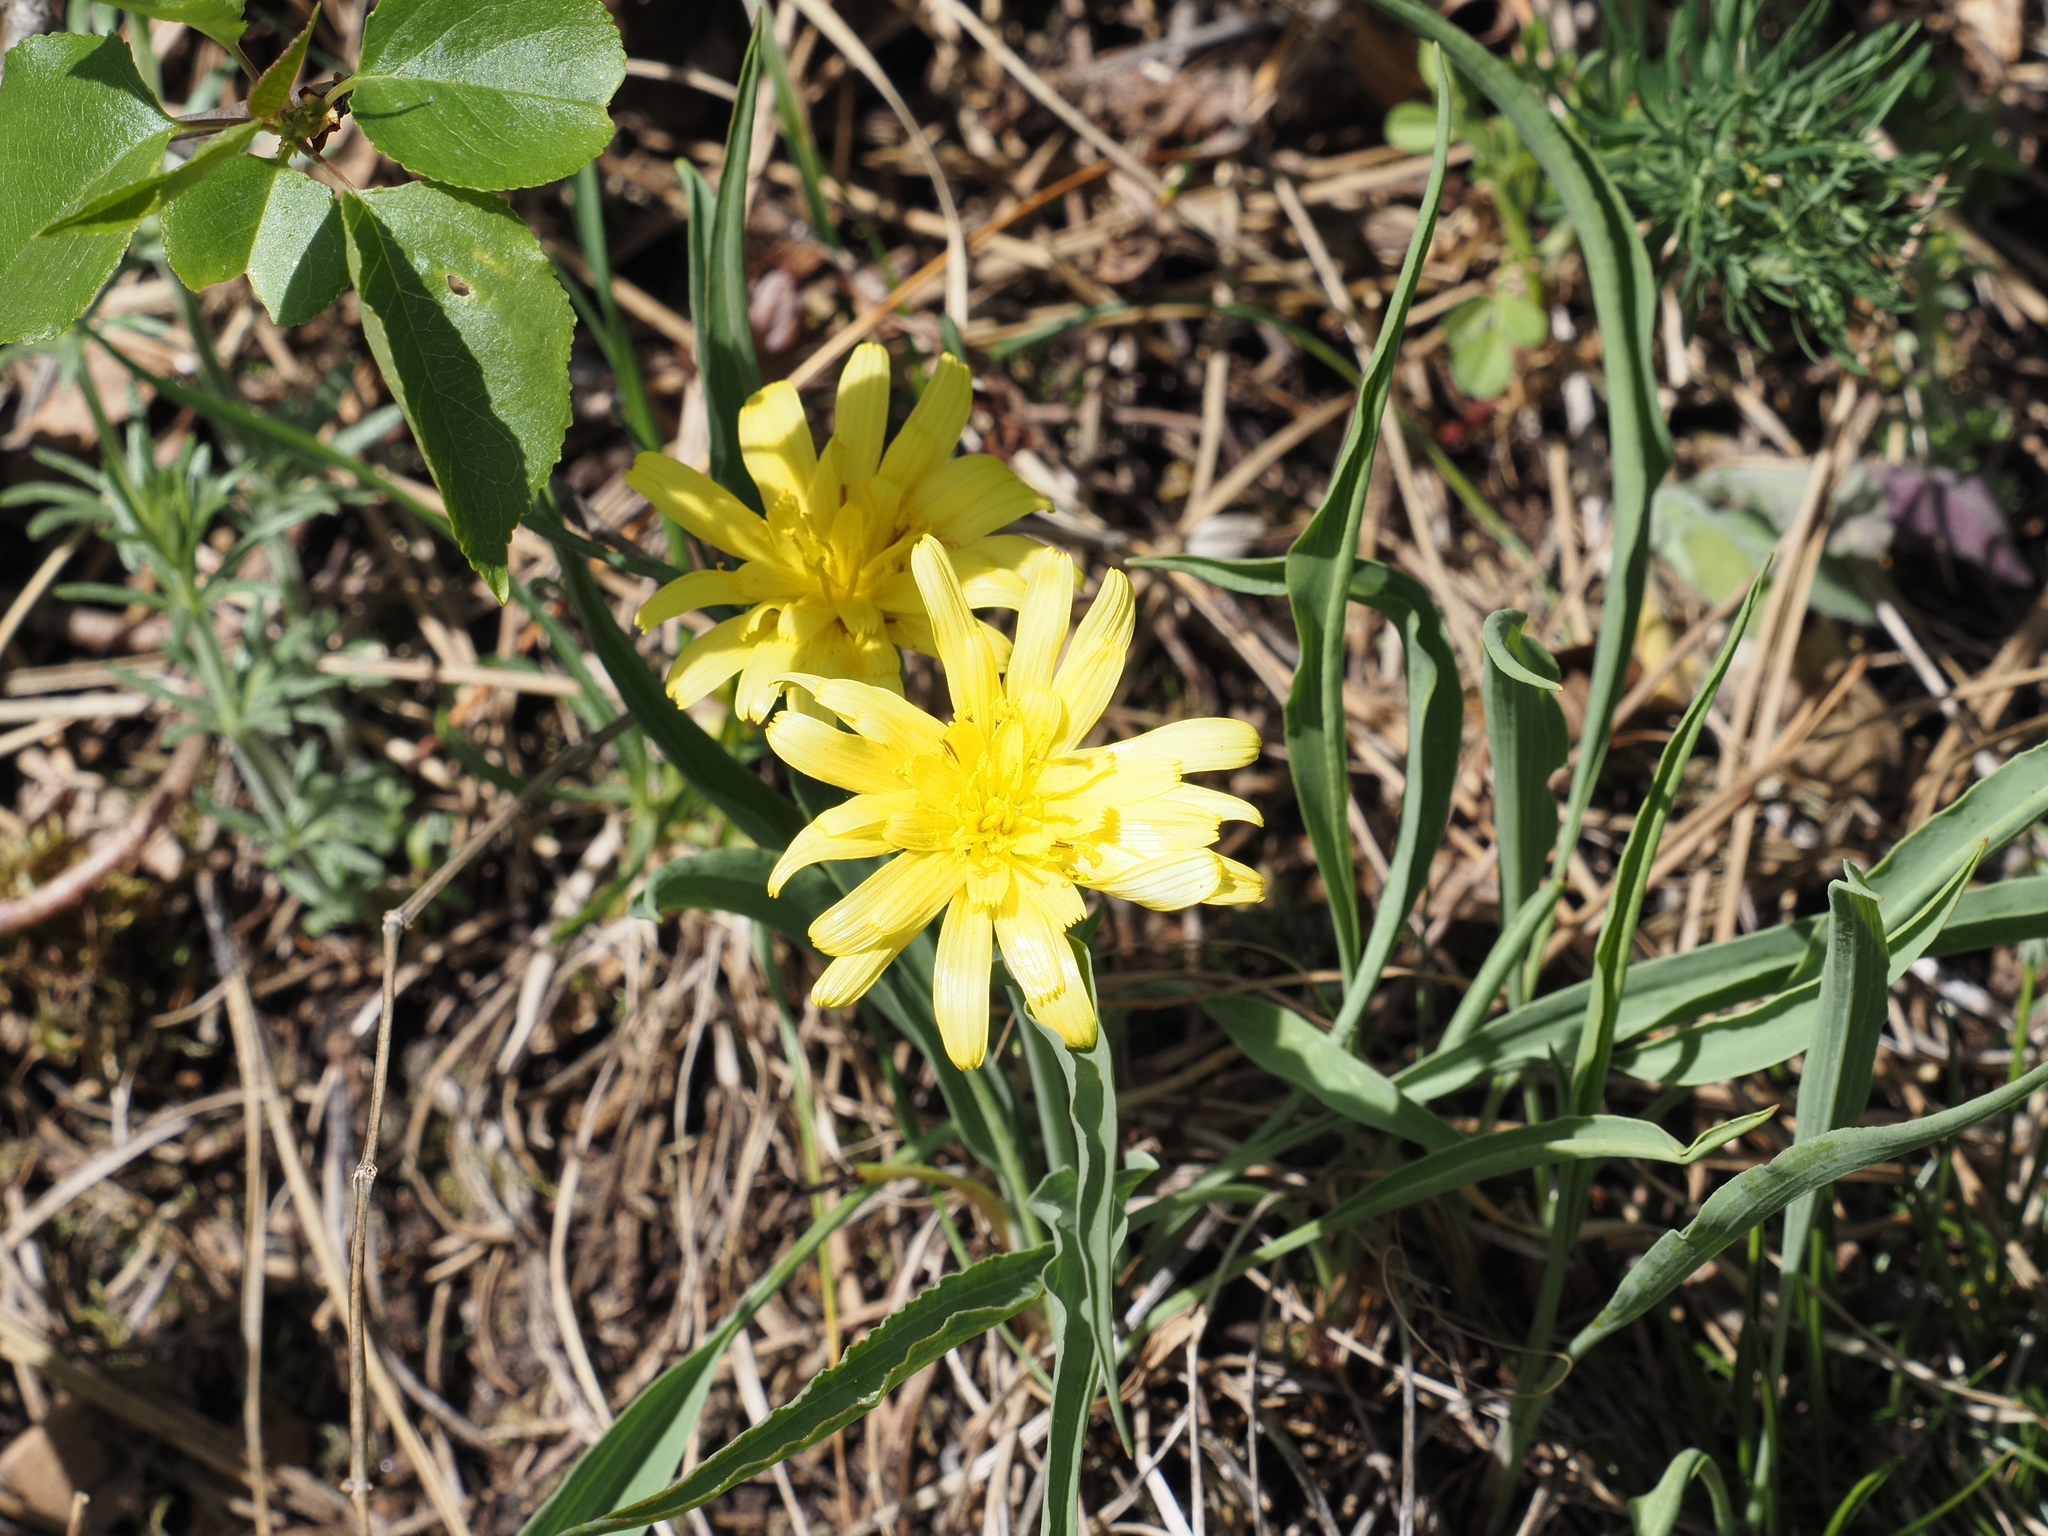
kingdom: Plantae
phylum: Tracheophyta
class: Magnoliopsida
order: Asterales
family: Asteraceae
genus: Takhtajaniantha
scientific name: Takhtajaniantha austriaca
